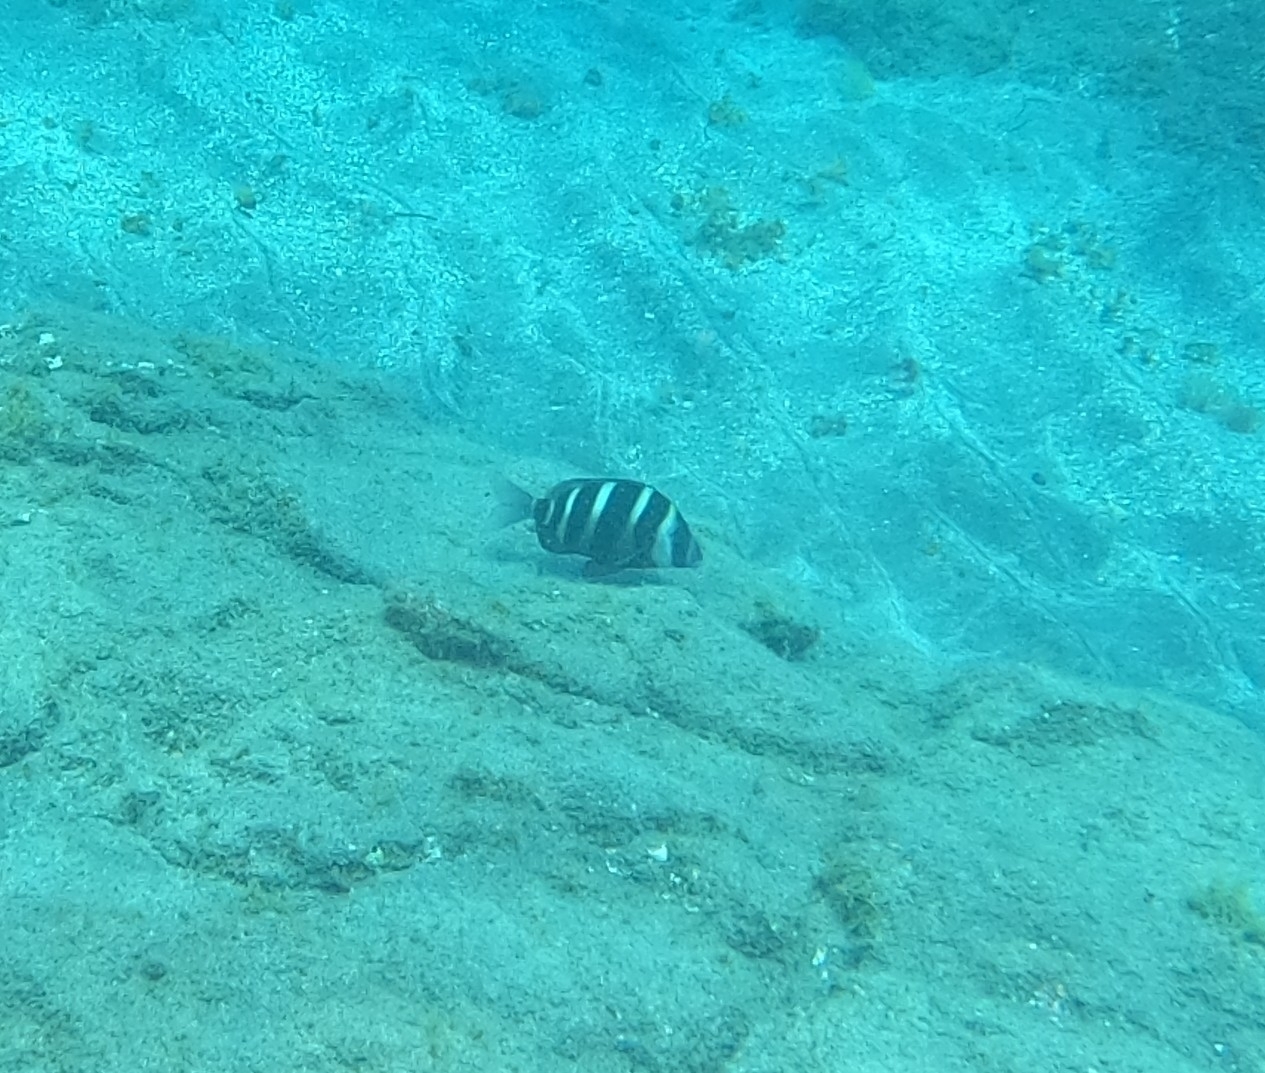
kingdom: Animalia
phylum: Chordata
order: Perciformes
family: Sparidae
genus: Diplodus
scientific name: Diplodus cervinus
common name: Oman porgy
